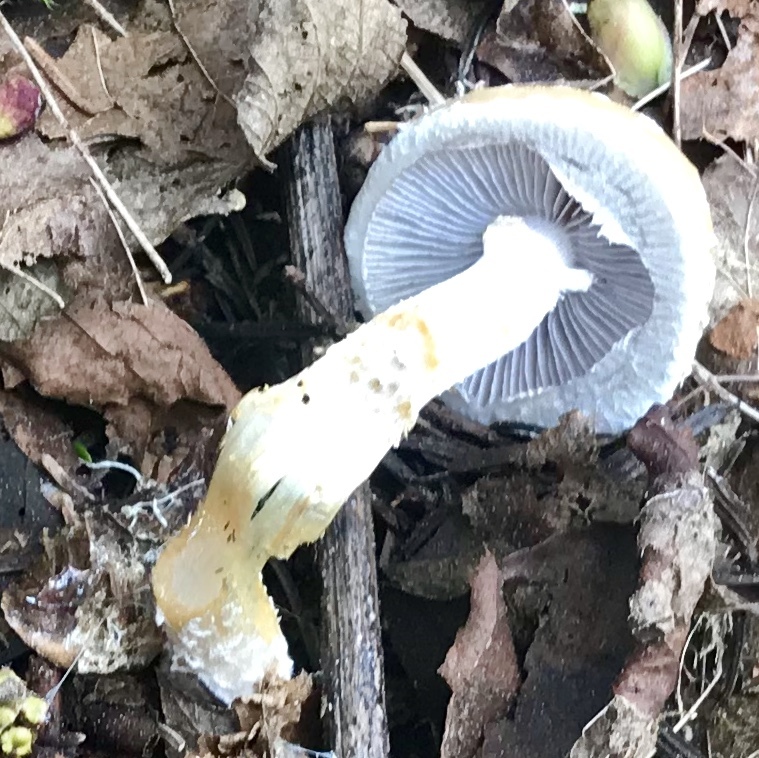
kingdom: Fungi
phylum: Basidiomycota
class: Agaricomycetes
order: Agaricales
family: Strophariaceae
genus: Stropharia
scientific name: Stropharia ambigua
